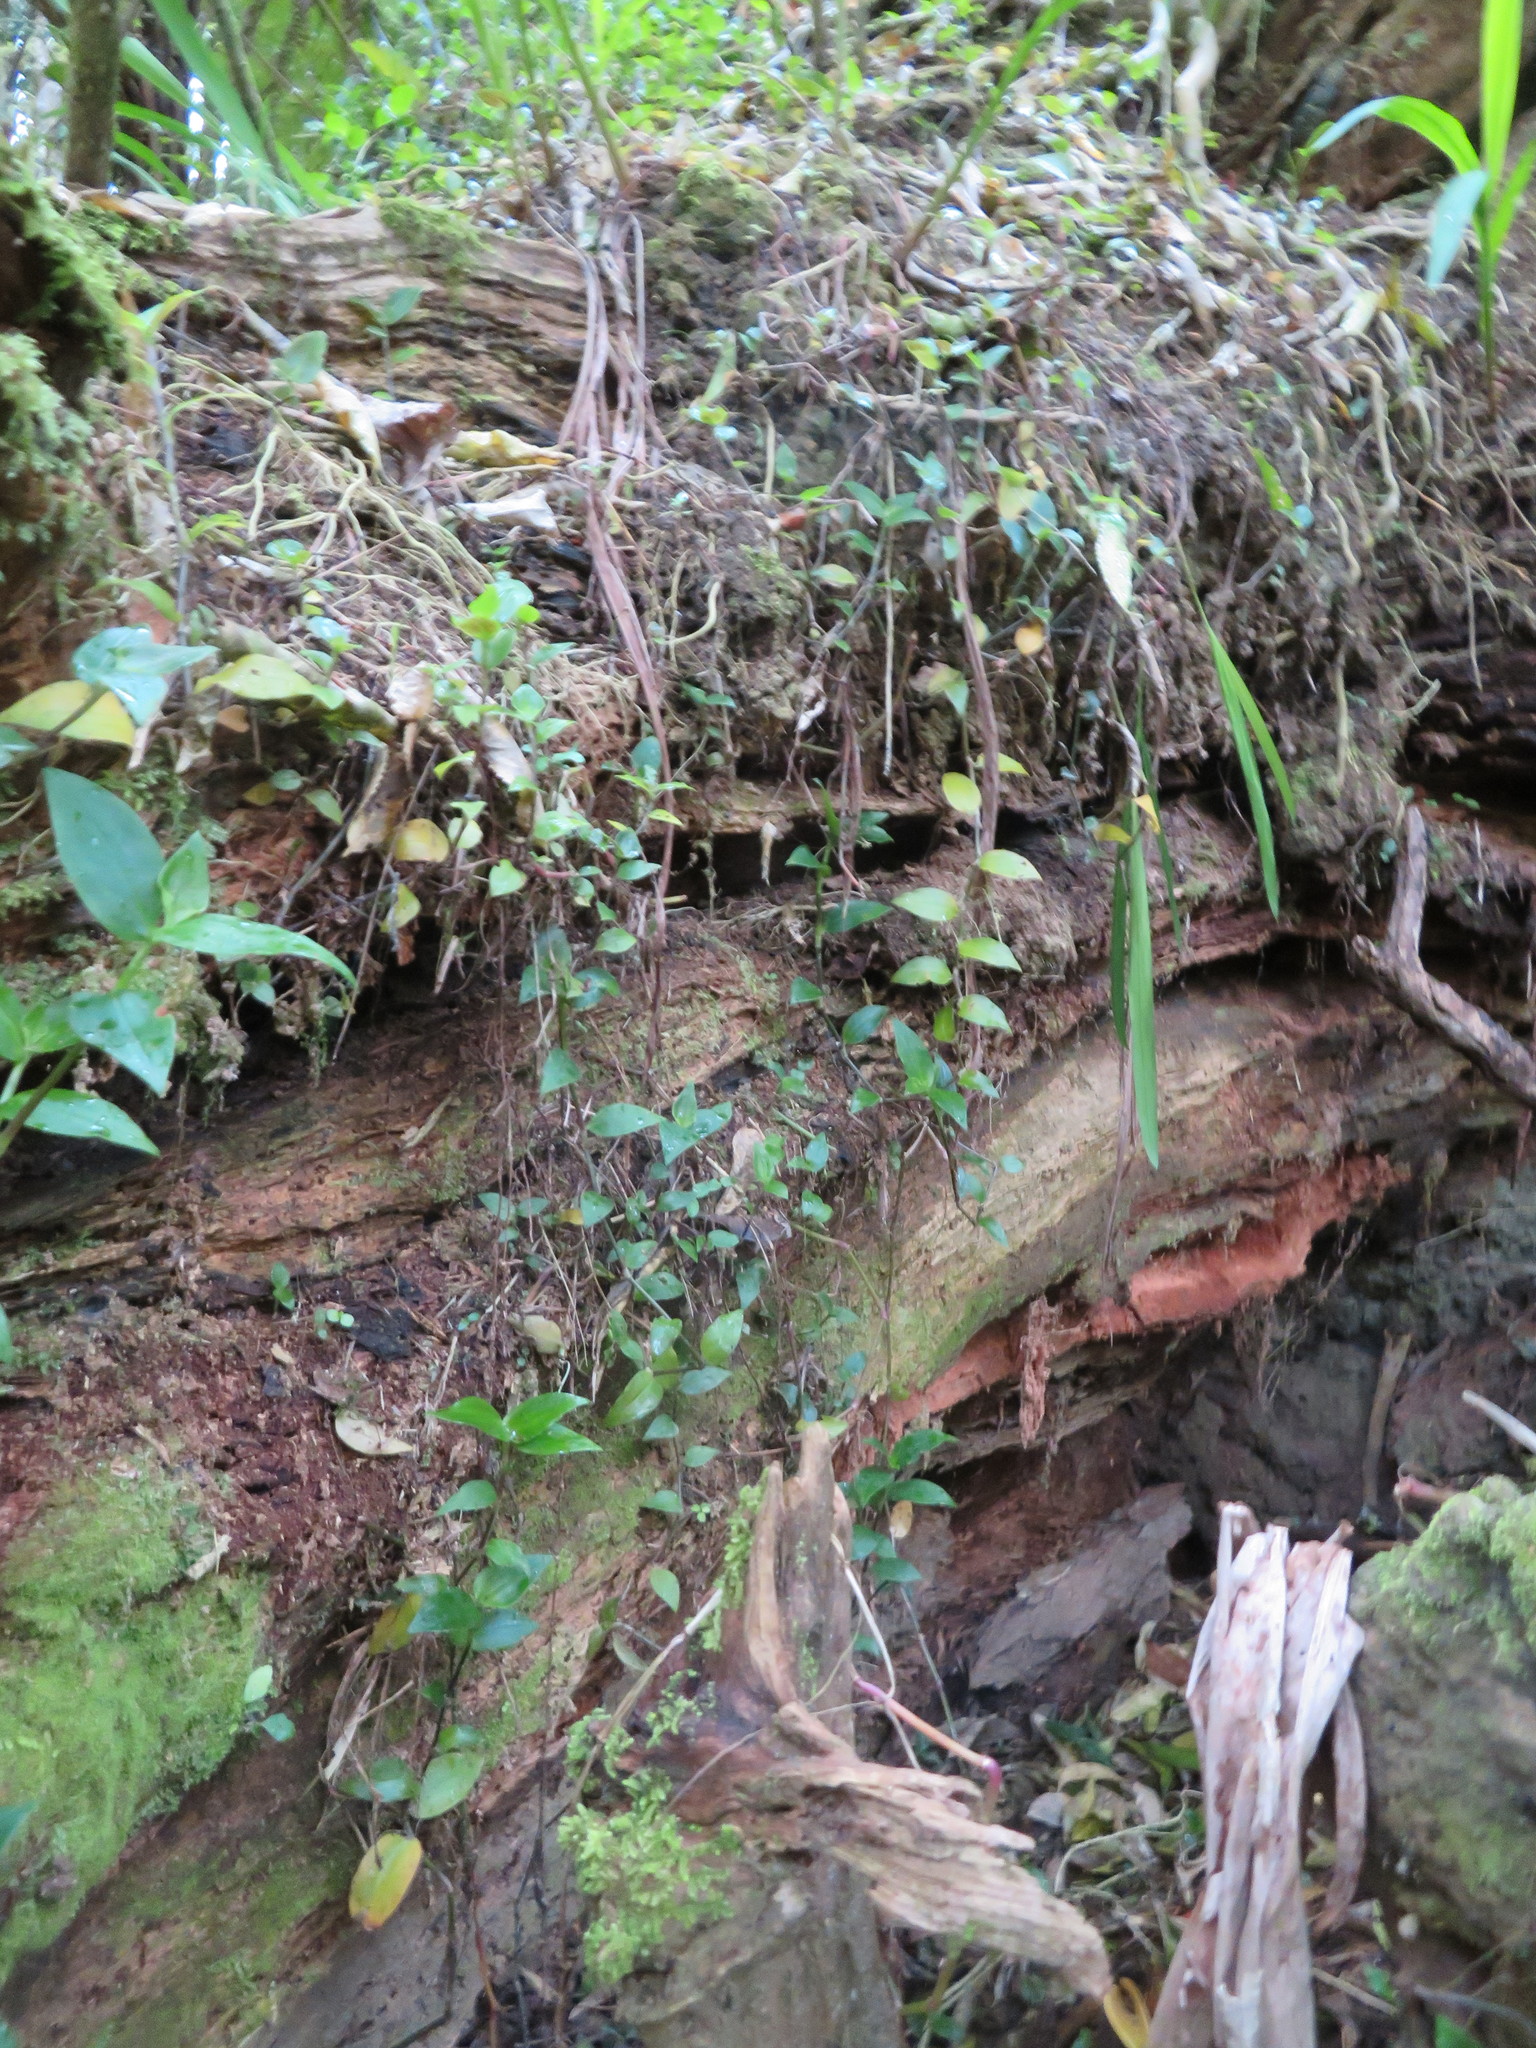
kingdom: Plantae
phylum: Tracheophyta
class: Liliopsida
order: Commelinales
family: Commelinaceae
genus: Tradescantia
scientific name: Tradescantia fluminensis
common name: Wandering-jew
